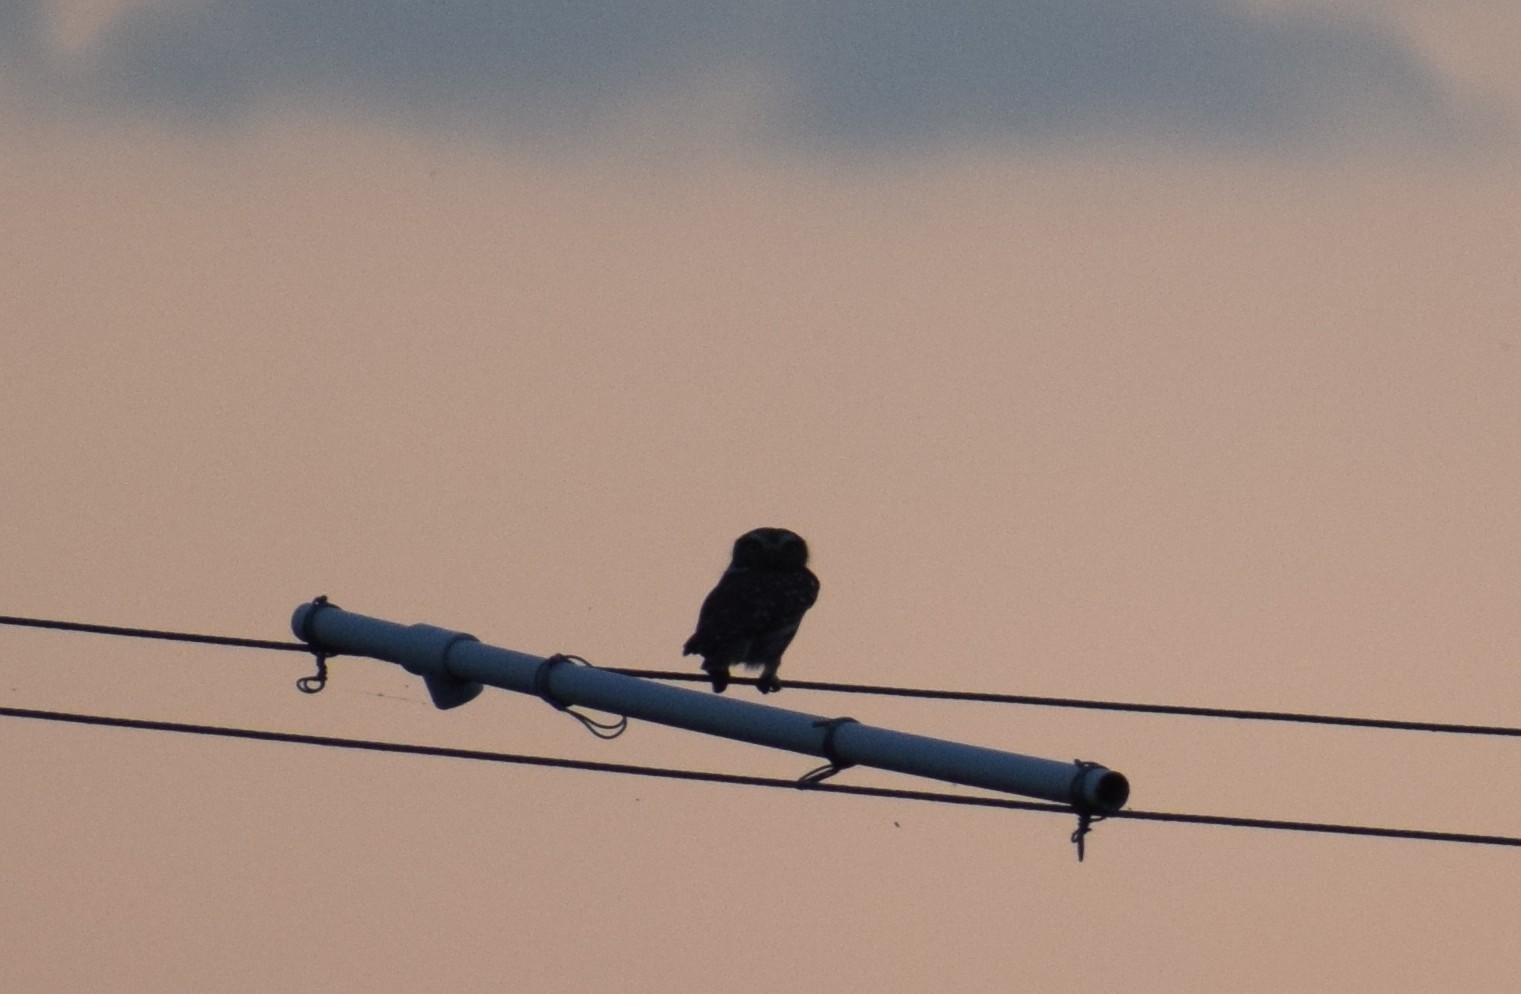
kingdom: Animalia
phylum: Chordata
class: Aves
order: Strigiformes
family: Strigidae
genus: Athene
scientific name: Athene noctua
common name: Little owl
